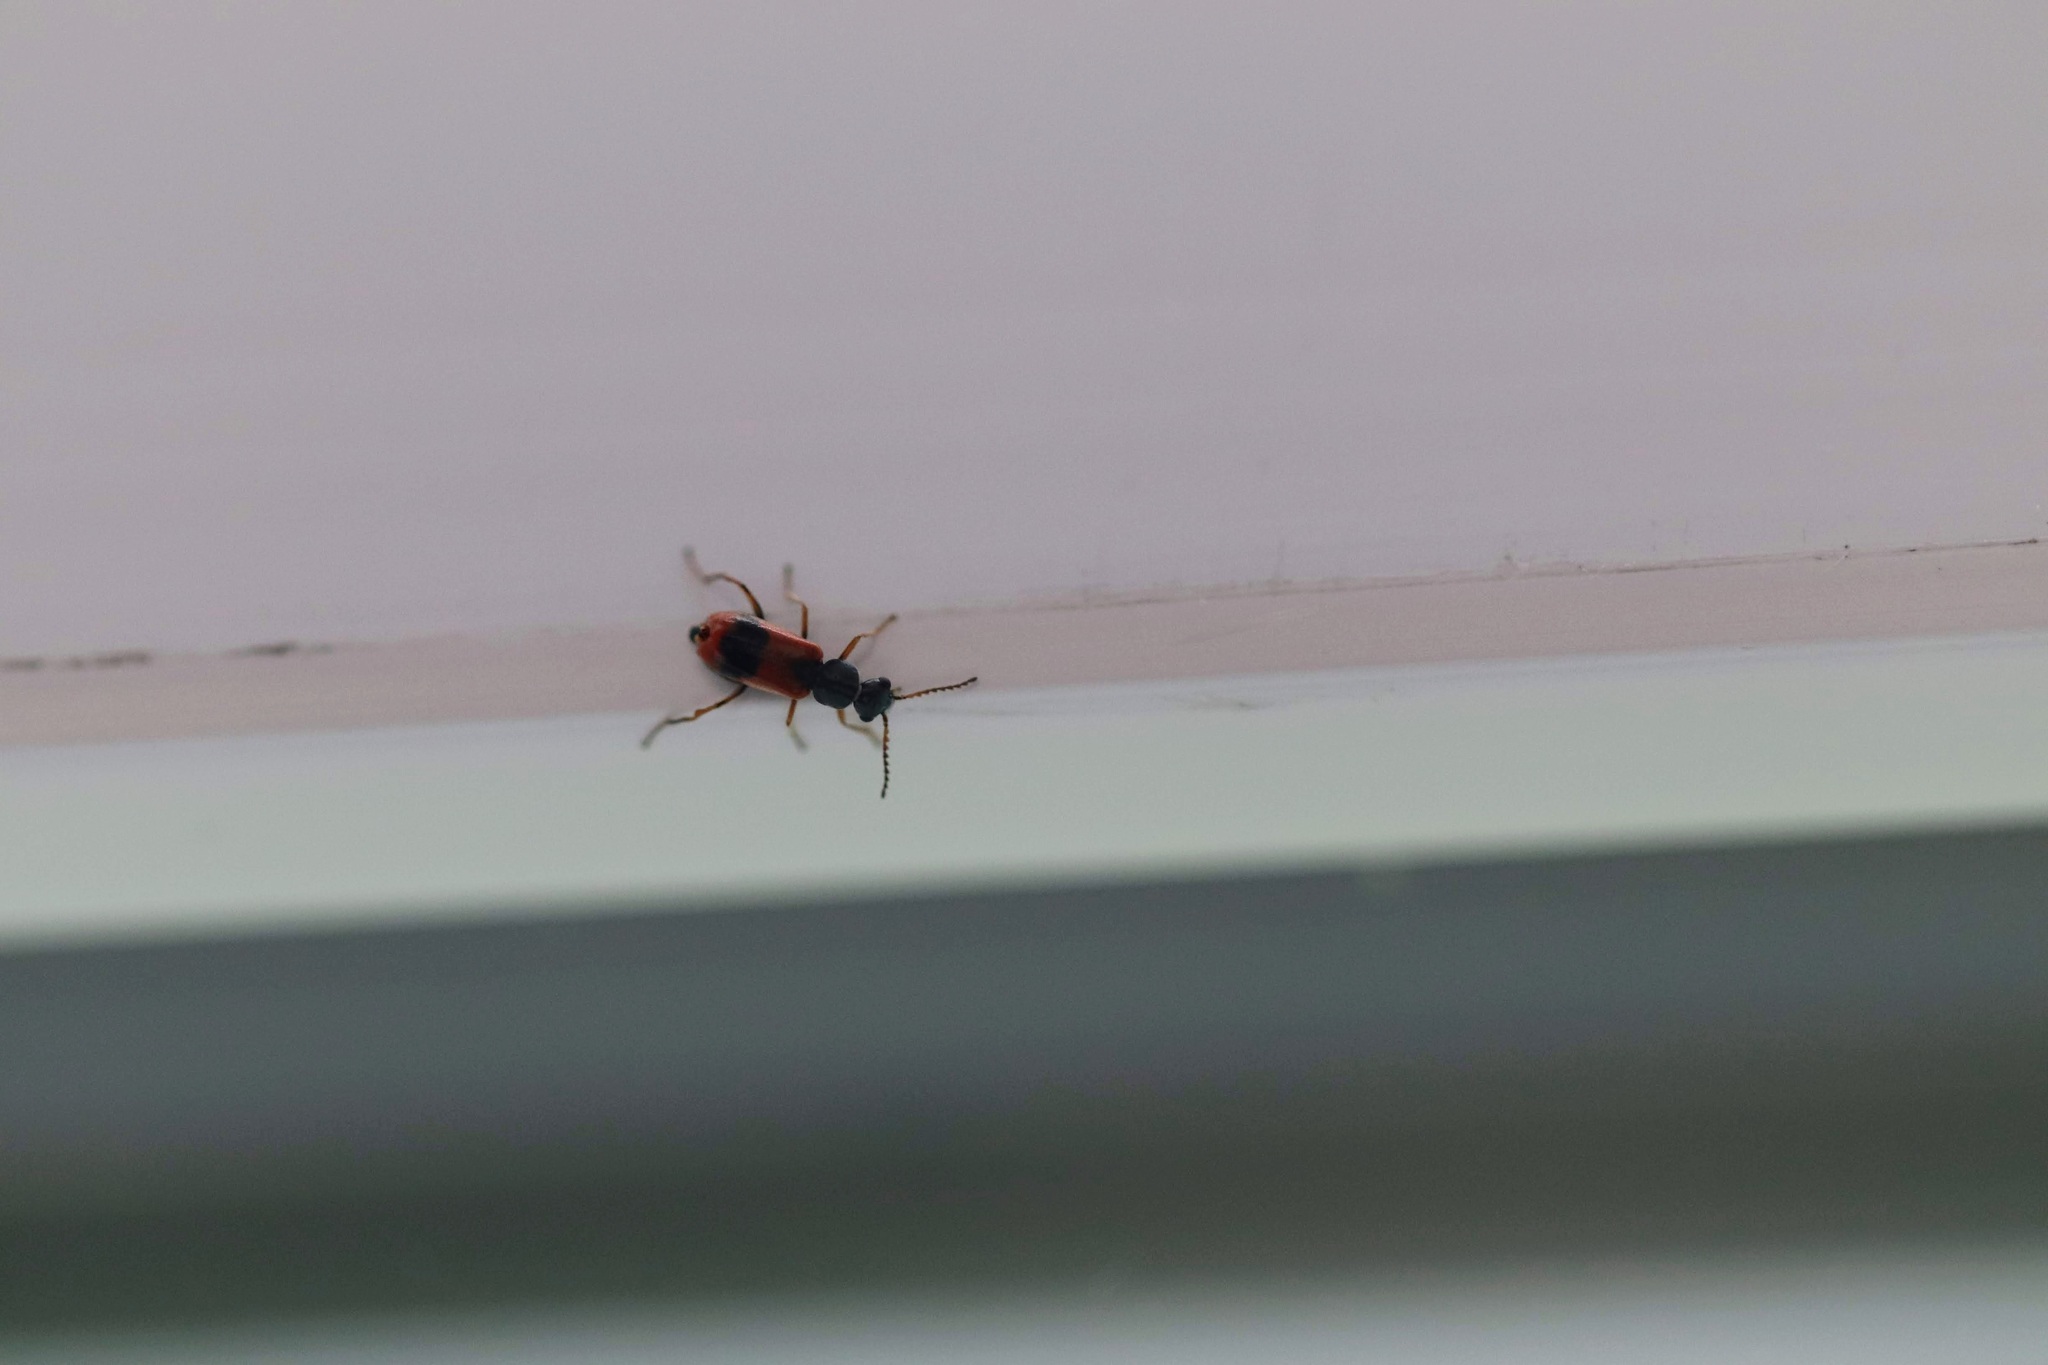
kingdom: Animalia
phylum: Arthropoda
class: Insecta
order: Coleoptera
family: Melyridae
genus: Anthocomus
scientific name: Anthocomus equestris
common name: Black-banded soft-winged flower beetle
